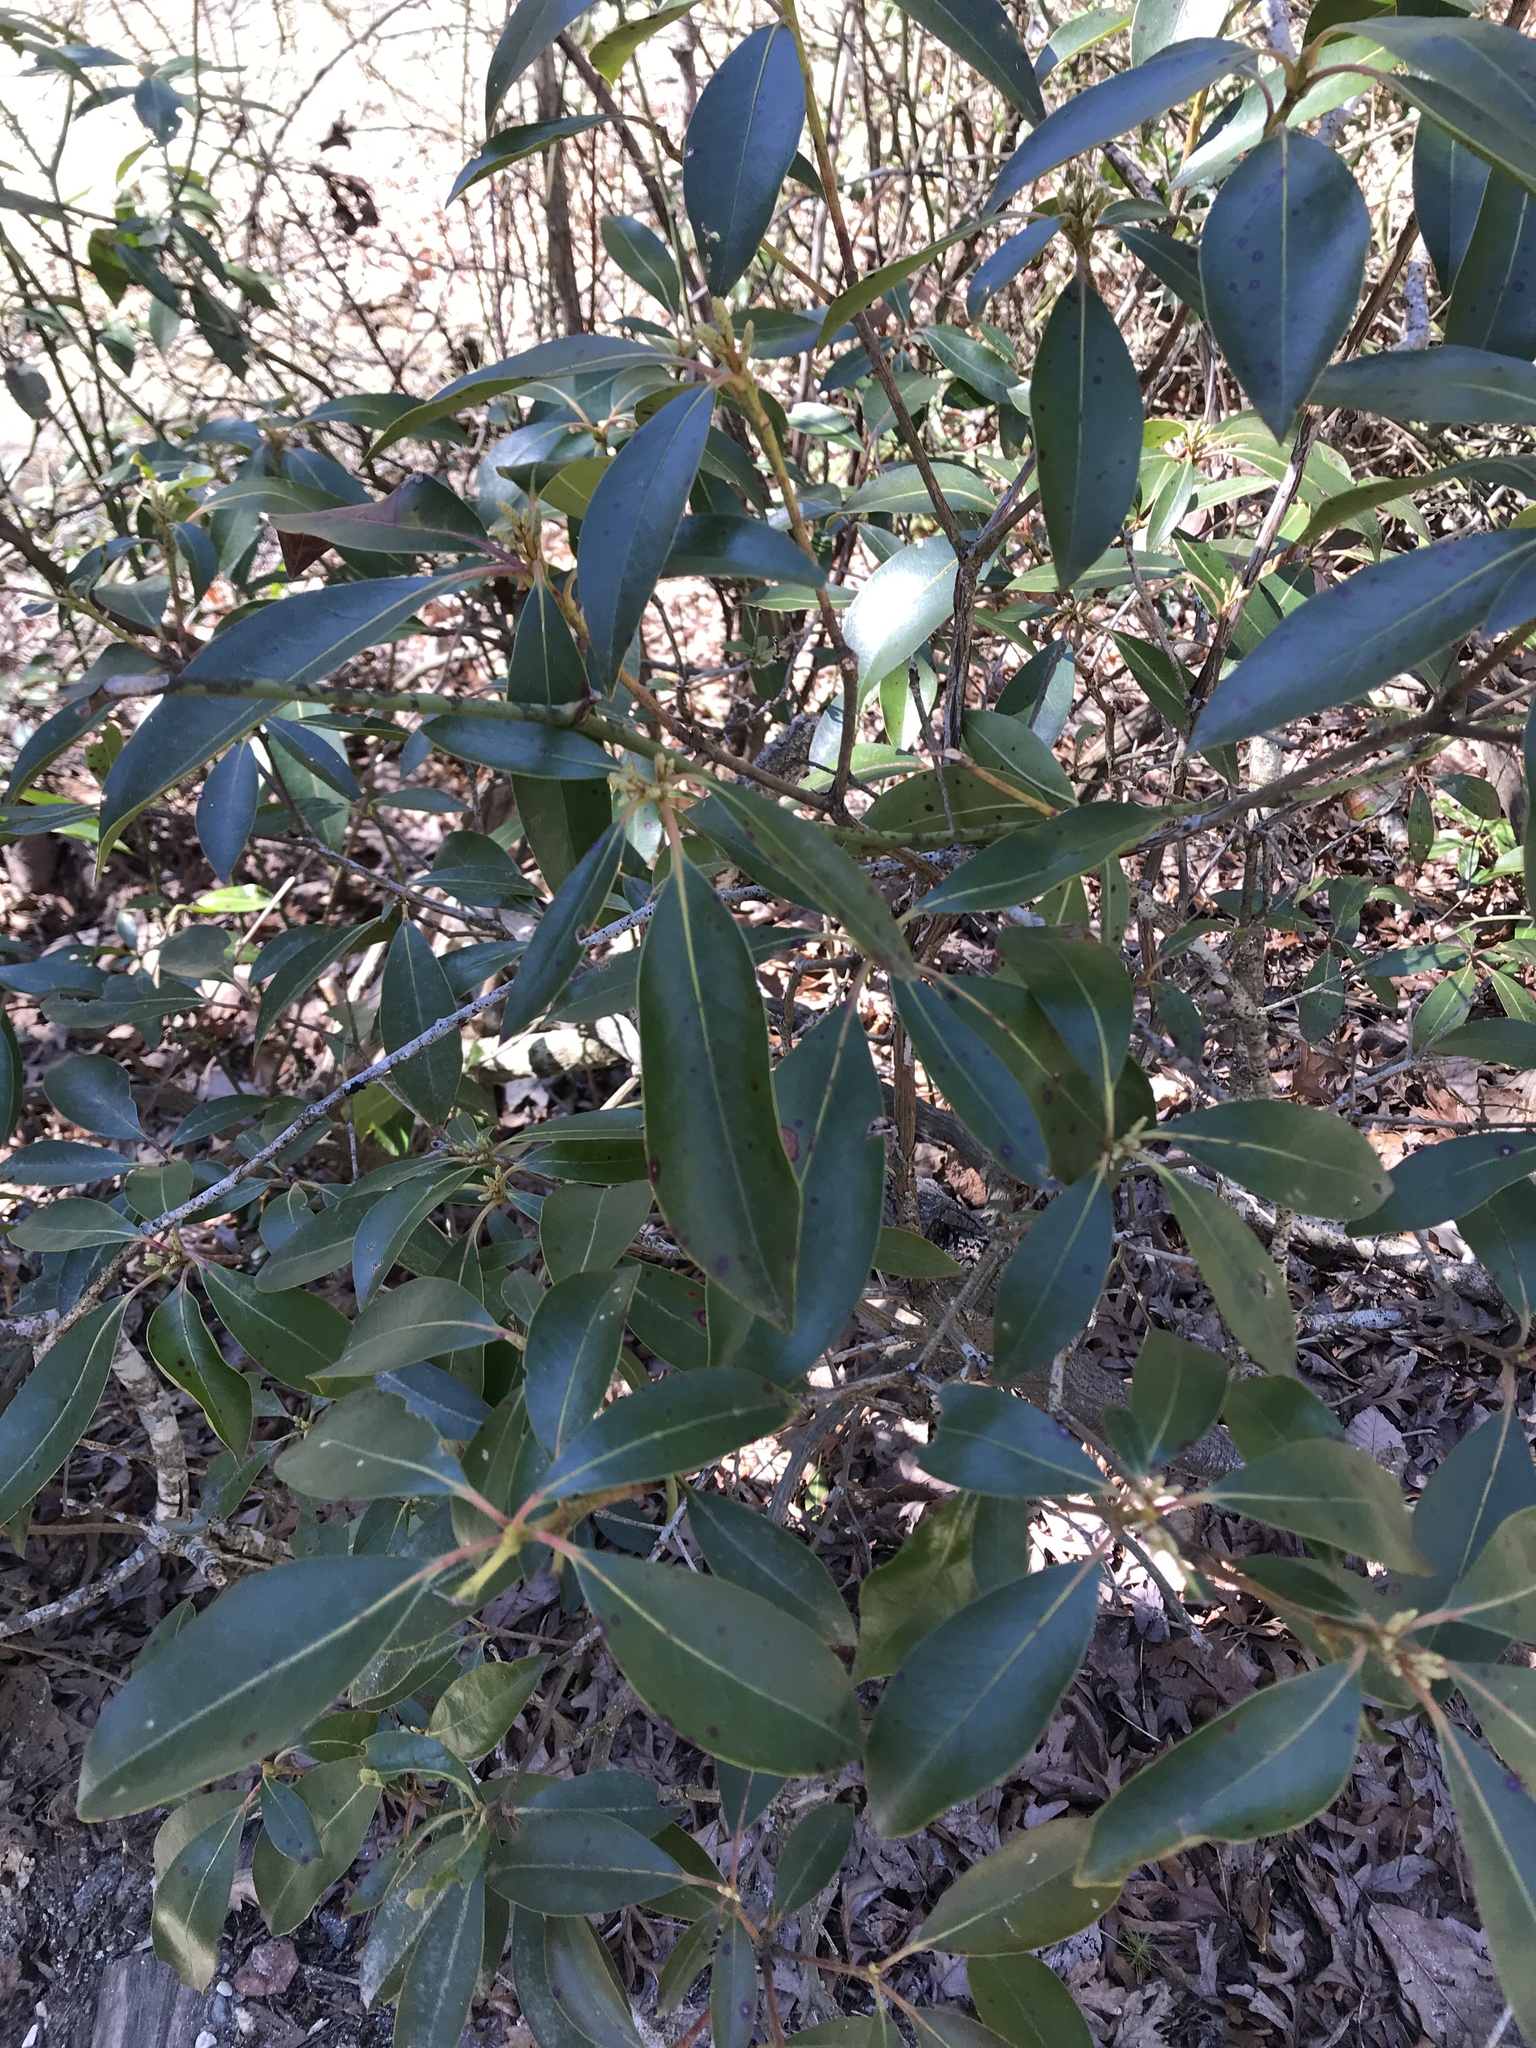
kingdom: Plantae
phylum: Tracheophyta
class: Magnoliopsida
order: Ericales
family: Ericaceae
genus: Kalmia
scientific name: Kalmia latifolia
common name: Mountain-laurel
